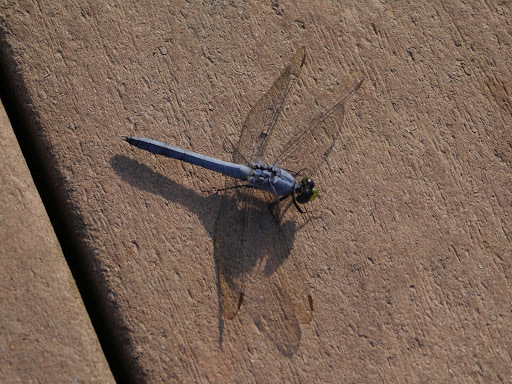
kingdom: Animalia
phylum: Arthropoda
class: Insecta
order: Odonata
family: Libellulidae
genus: Erythemis
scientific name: Erythemis simplicicollis
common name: Eastern pondhawk
